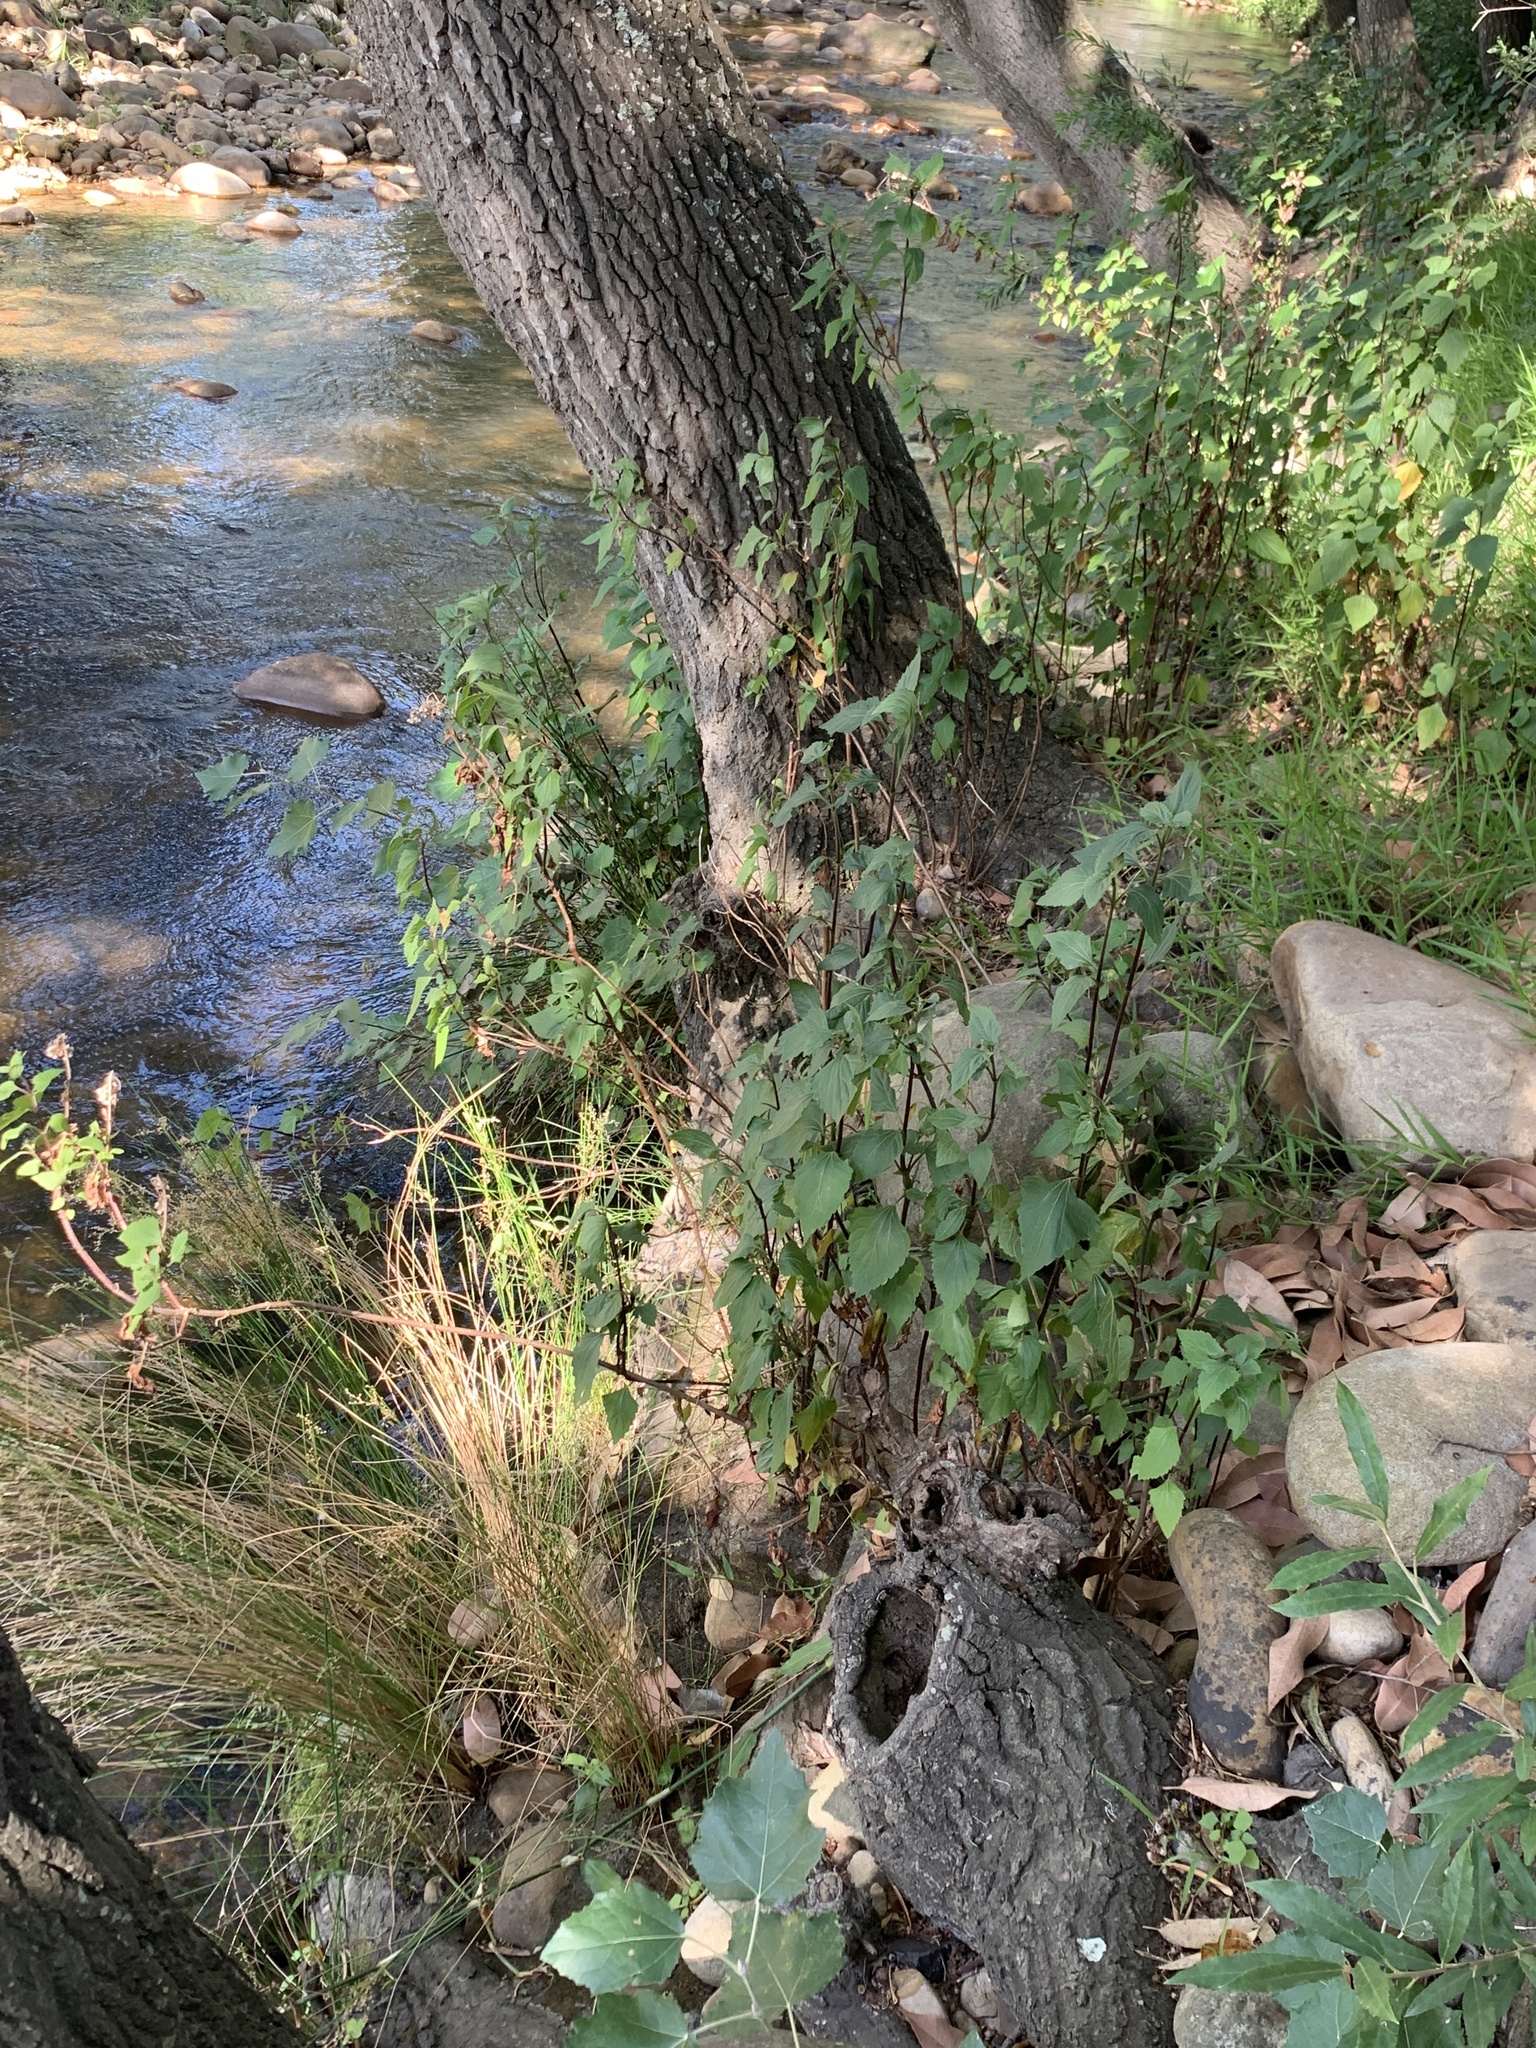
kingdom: Plantae
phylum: Tracheophyta
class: Magnoliopsida
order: Asterales
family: Asteraceae
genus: Ageratina
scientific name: Ageratina adenophora
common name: Sticky snakeroot
